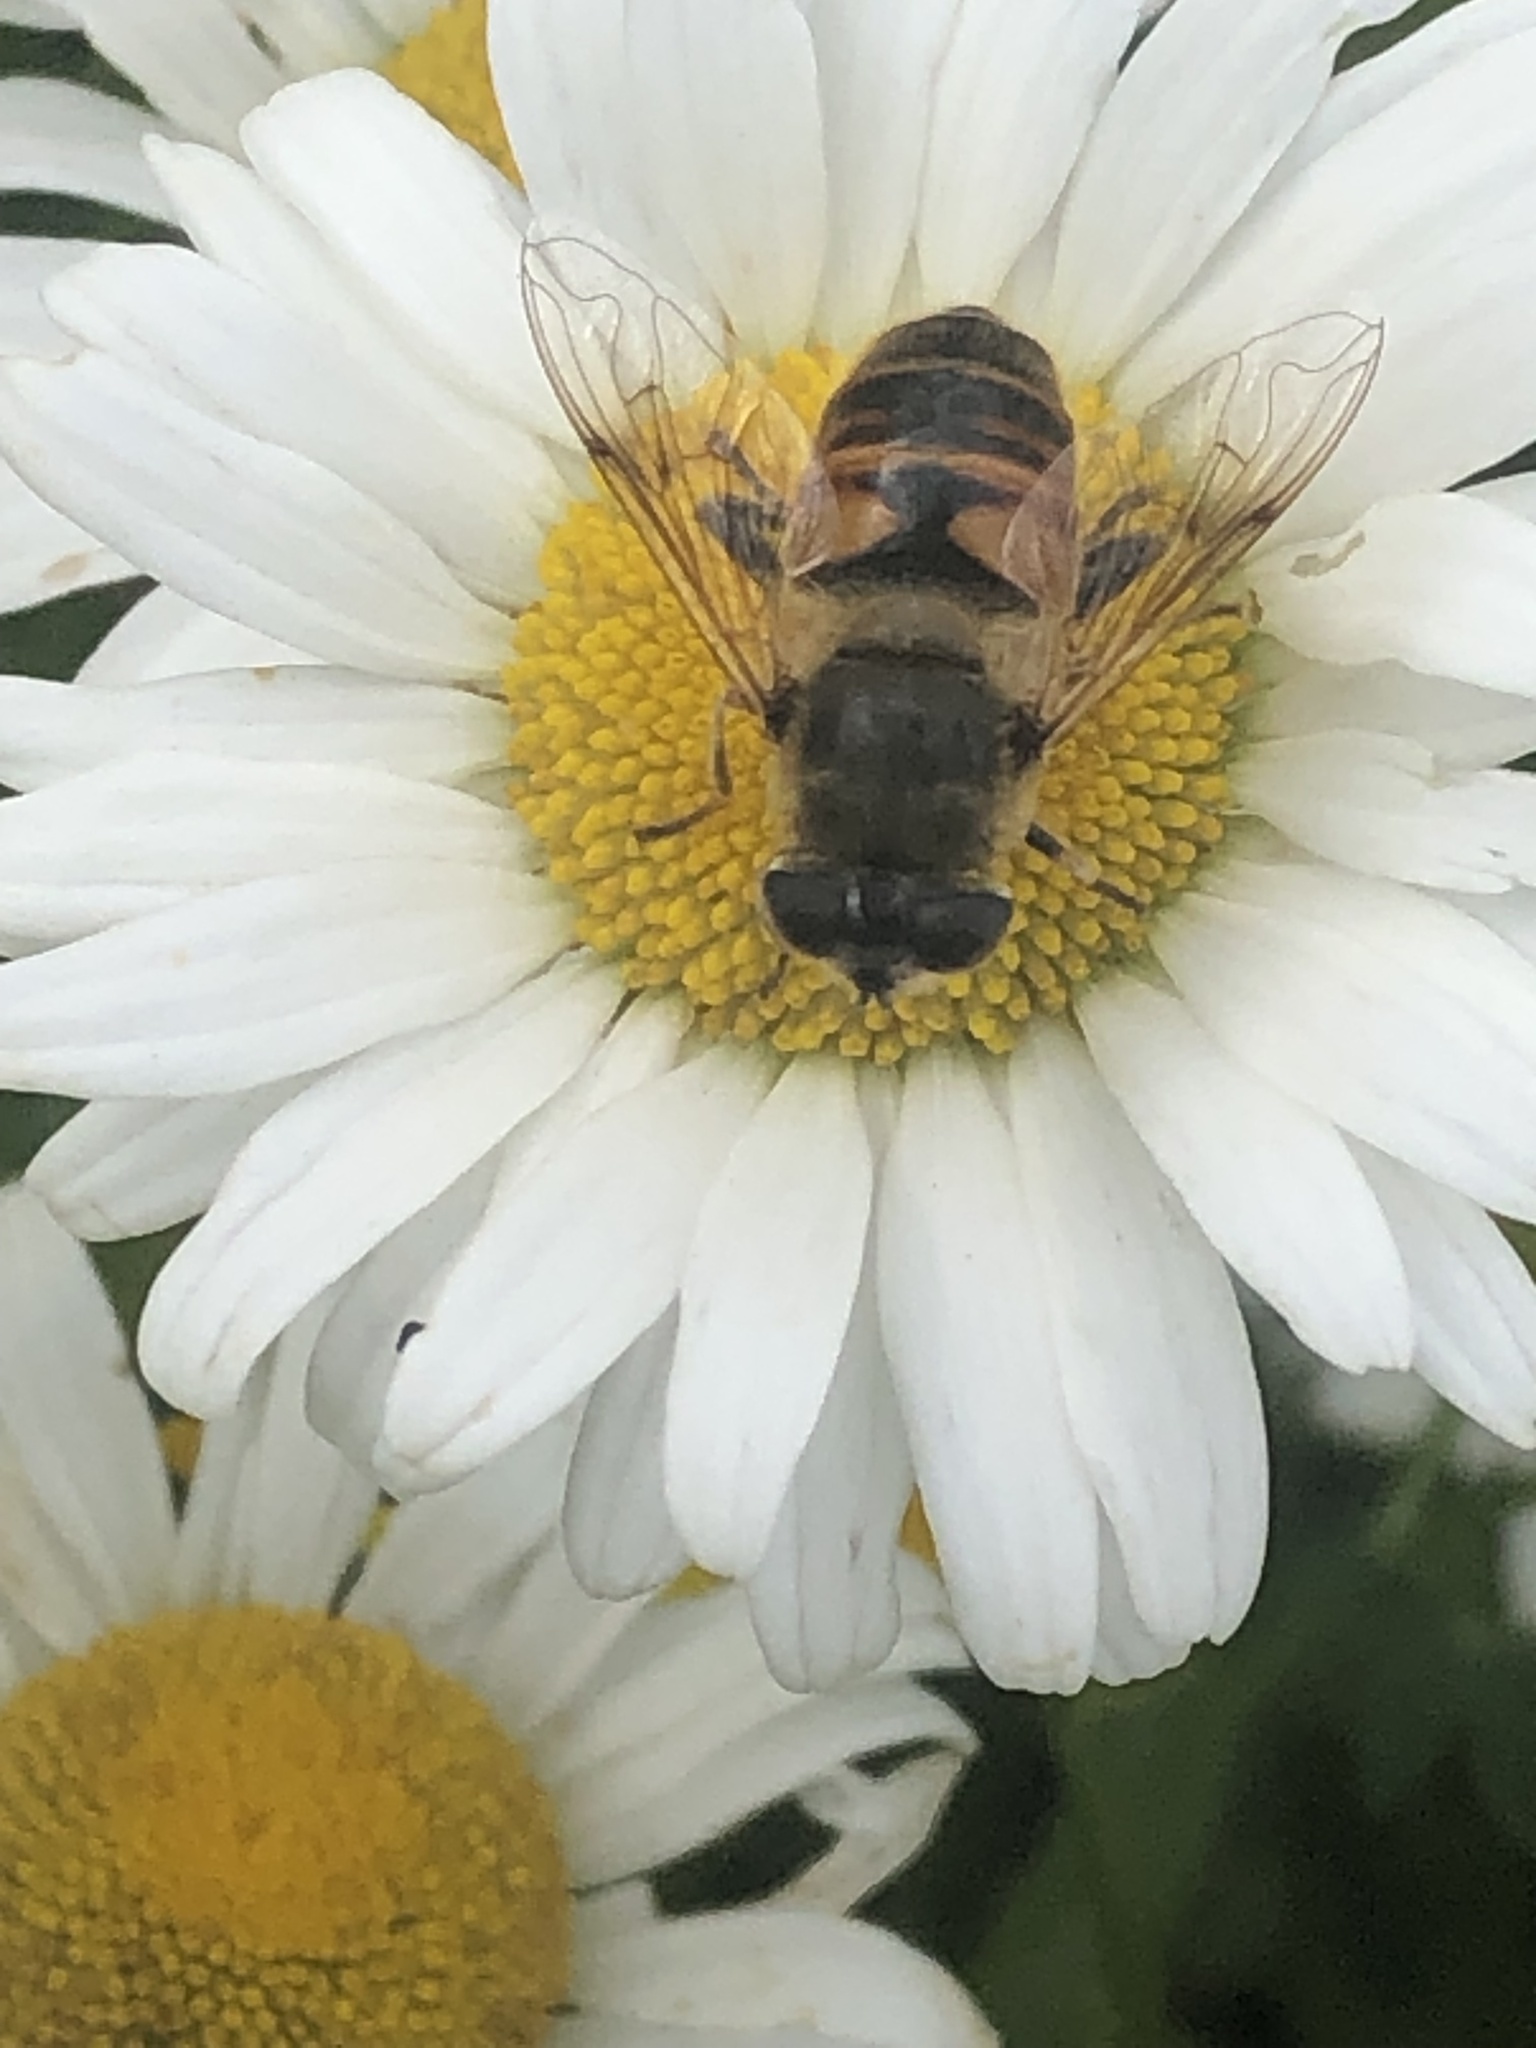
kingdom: Animalia
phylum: Arthropoda
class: Insecta
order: Diptera
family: Syrphidae
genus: Eristalis
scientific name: Eristalis tenax
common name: Drone fly
